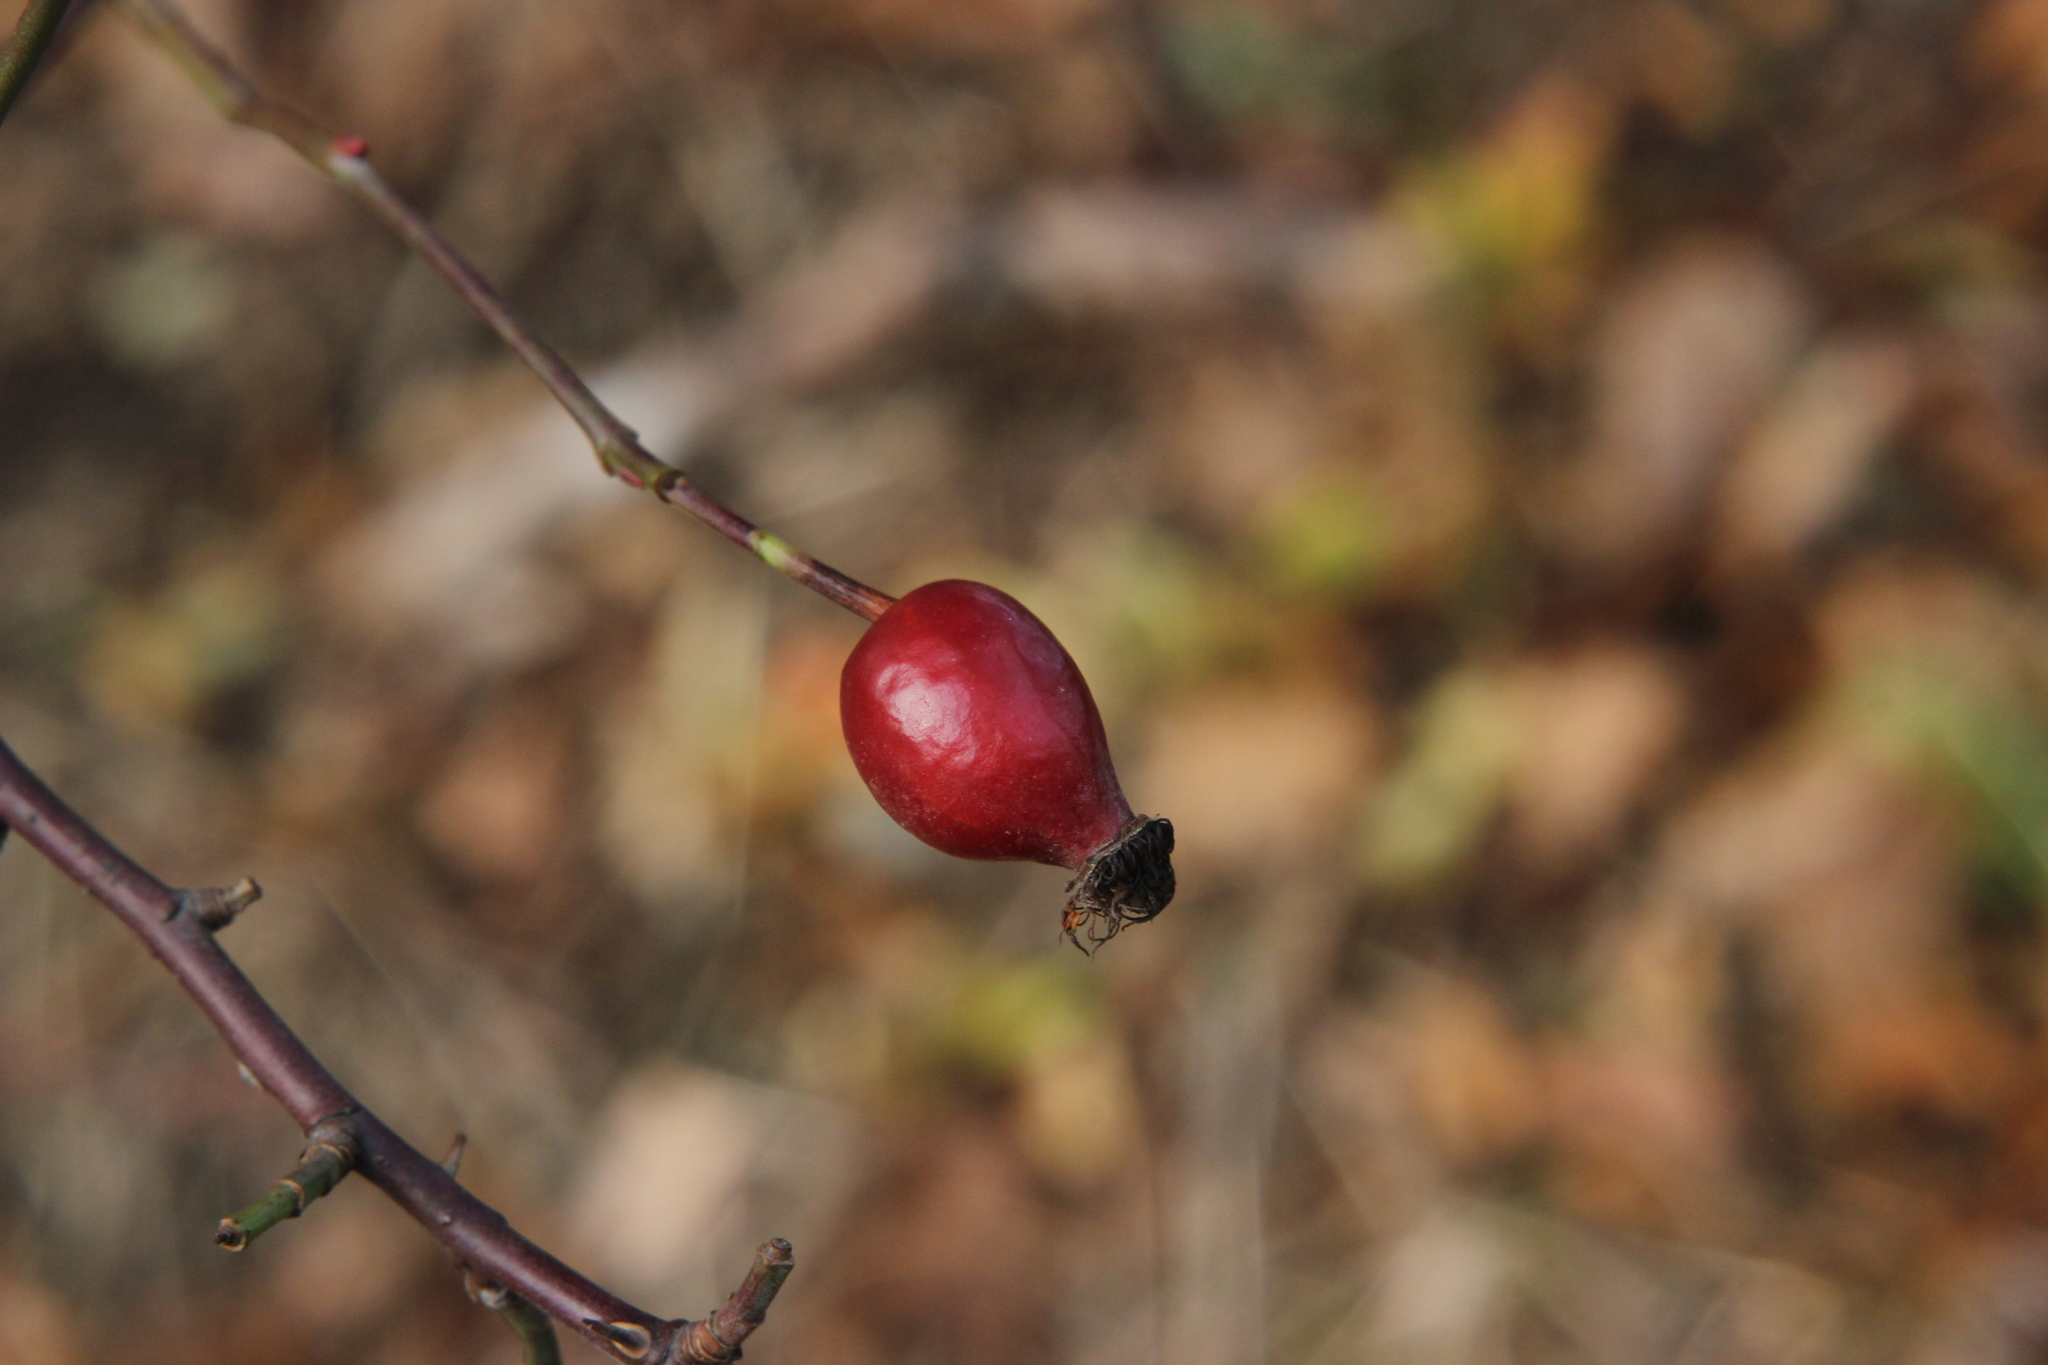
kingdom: Plantae
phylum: Tracheophyta
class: Magnoliopsida
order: Rosales
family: Rosaceae
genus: Rosa
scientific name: Rosa canina
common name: Dog rose
